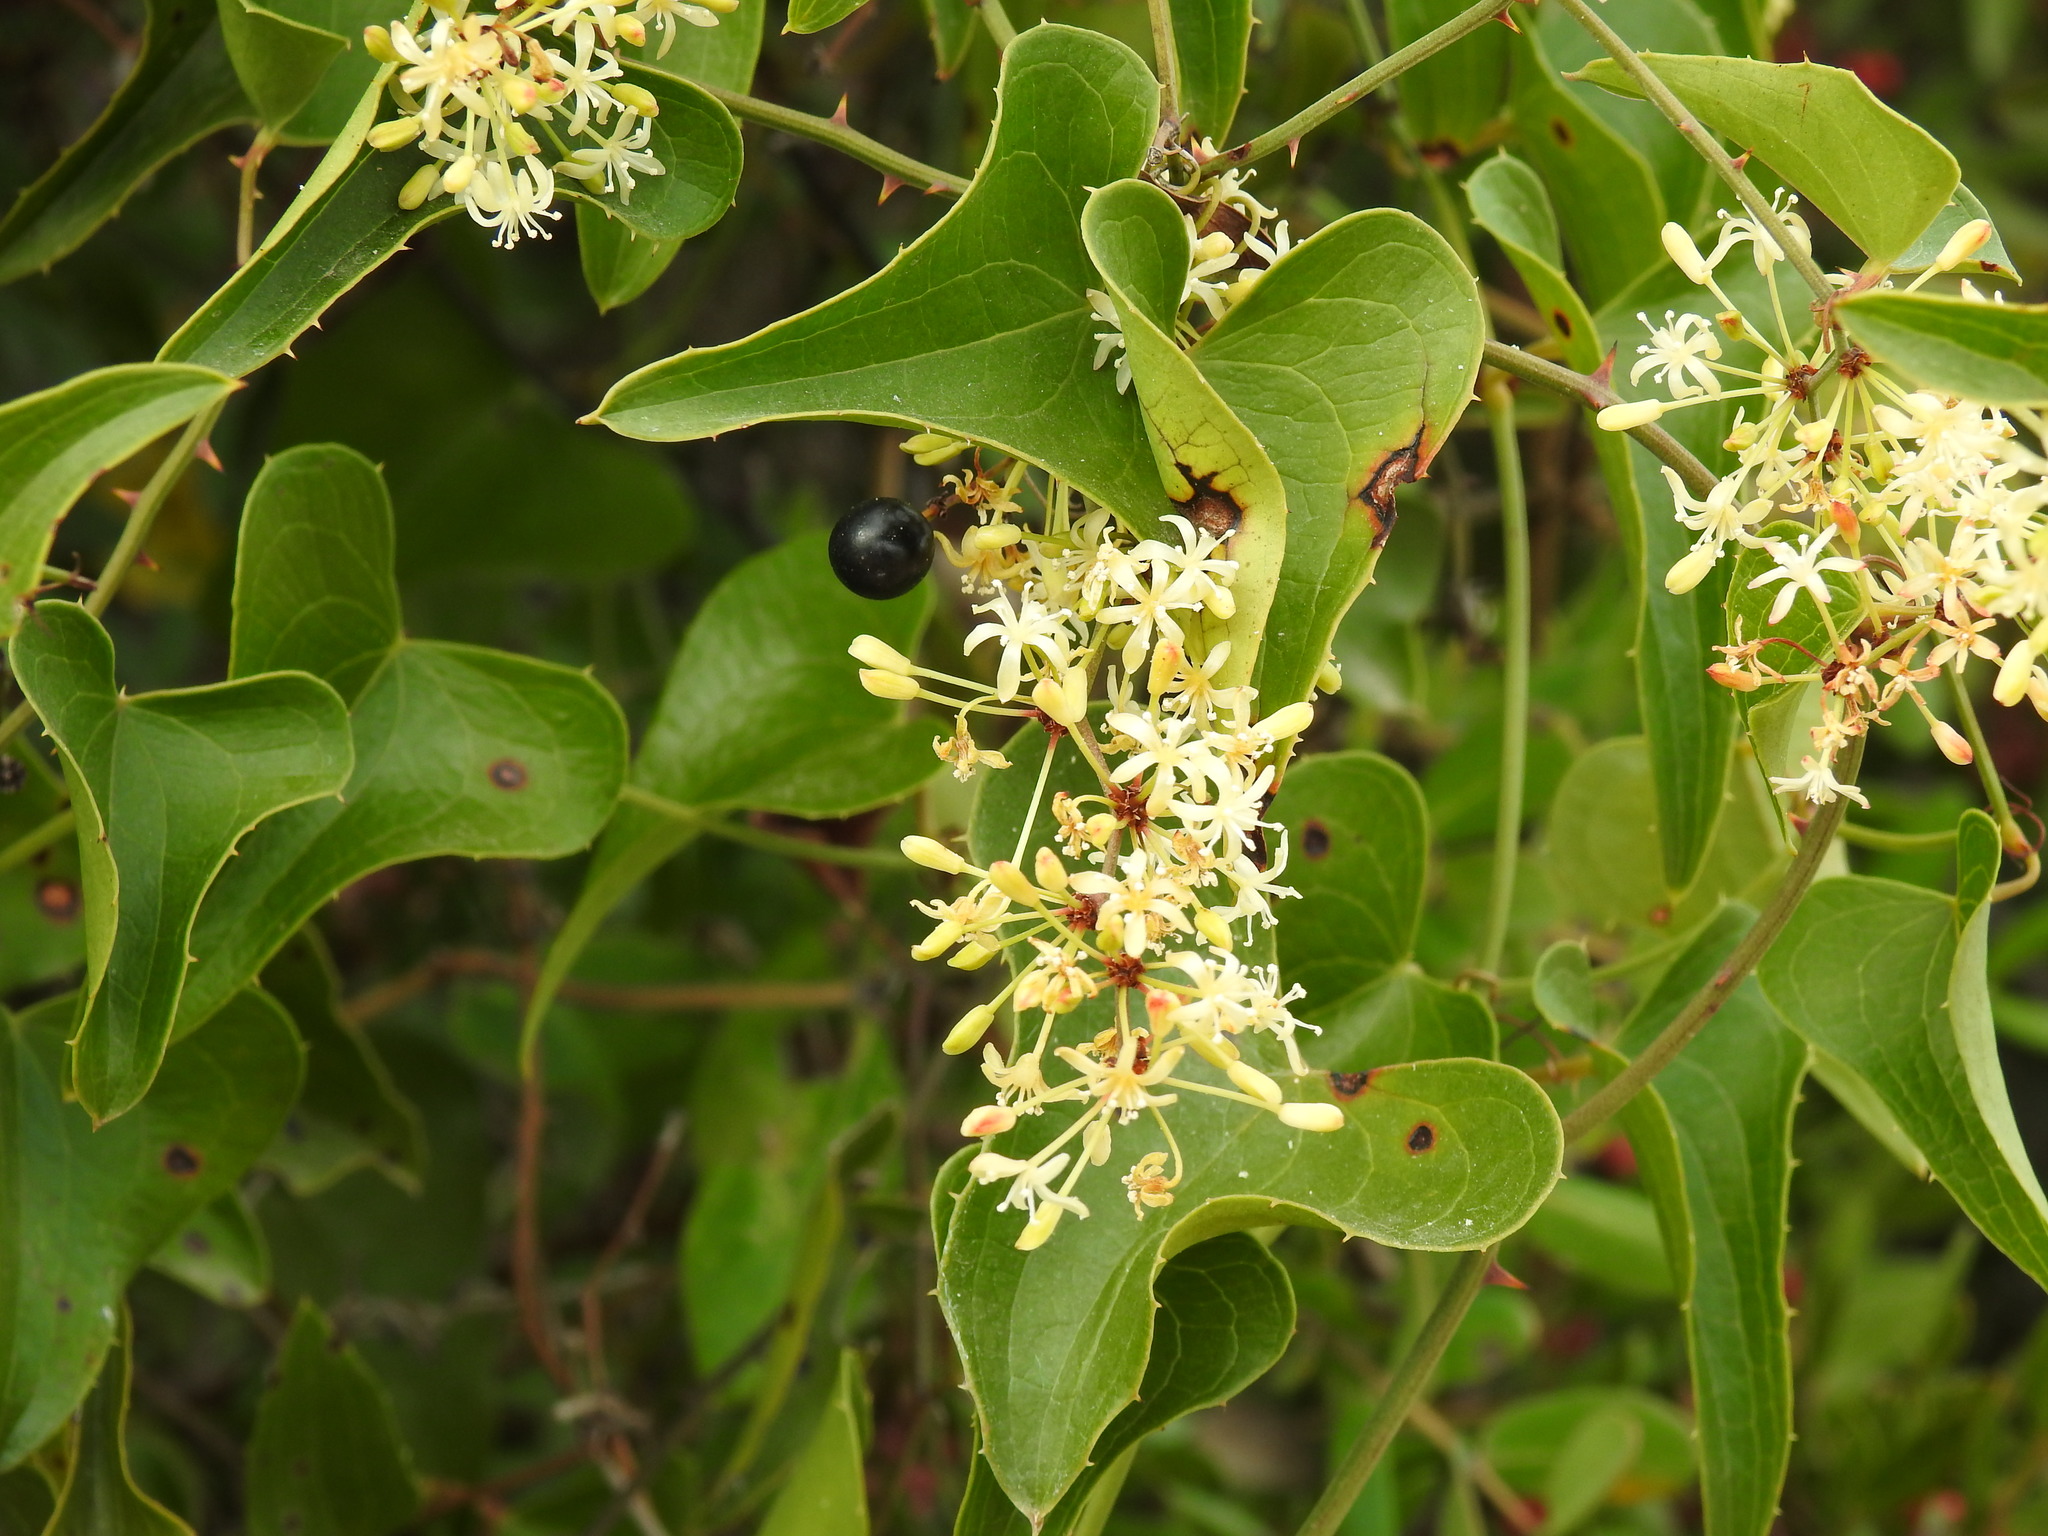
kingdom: Plantae
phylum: Tracheophyta
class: Liliopsida
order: Liliales
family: Smilacaceae
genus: Smilax
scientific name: Smilax aspera
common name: Common smilax
